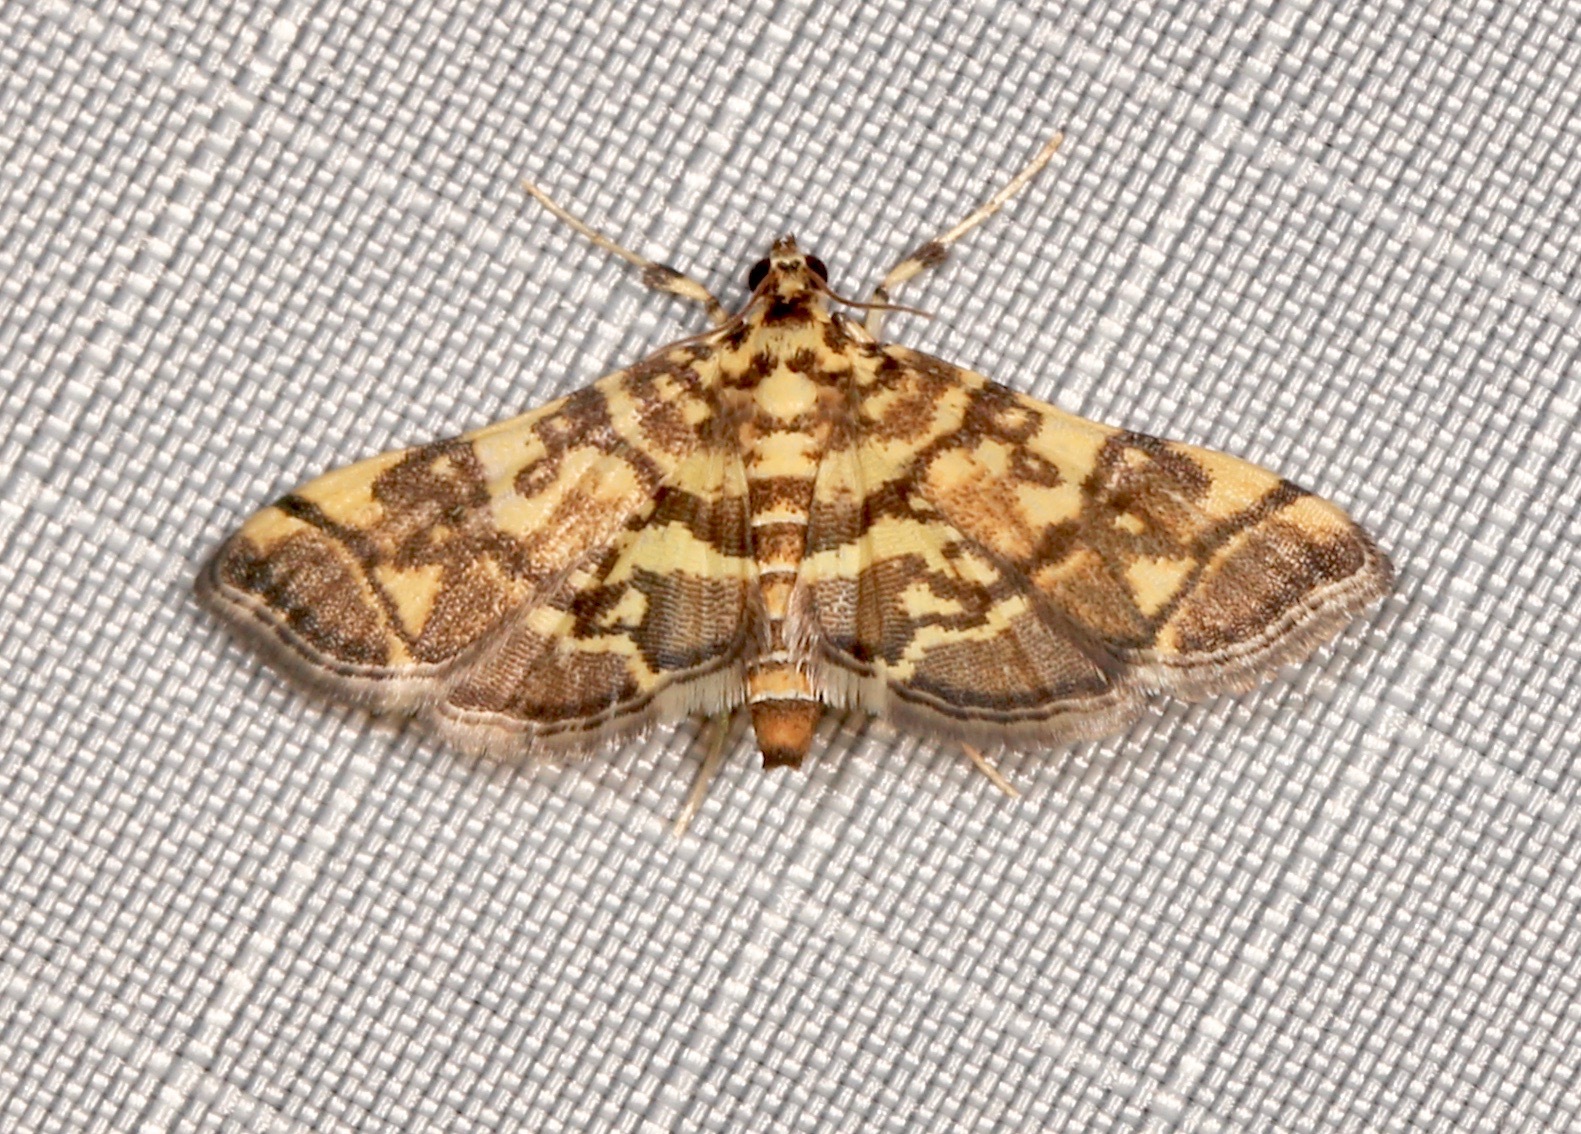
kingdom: Animalia
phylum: Arthropoda
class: Insecta
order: Lepidoptera
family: Crambidae
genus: Apogeshna
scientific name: Apogeshna stenialis
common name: Checkered apogeshna moth
